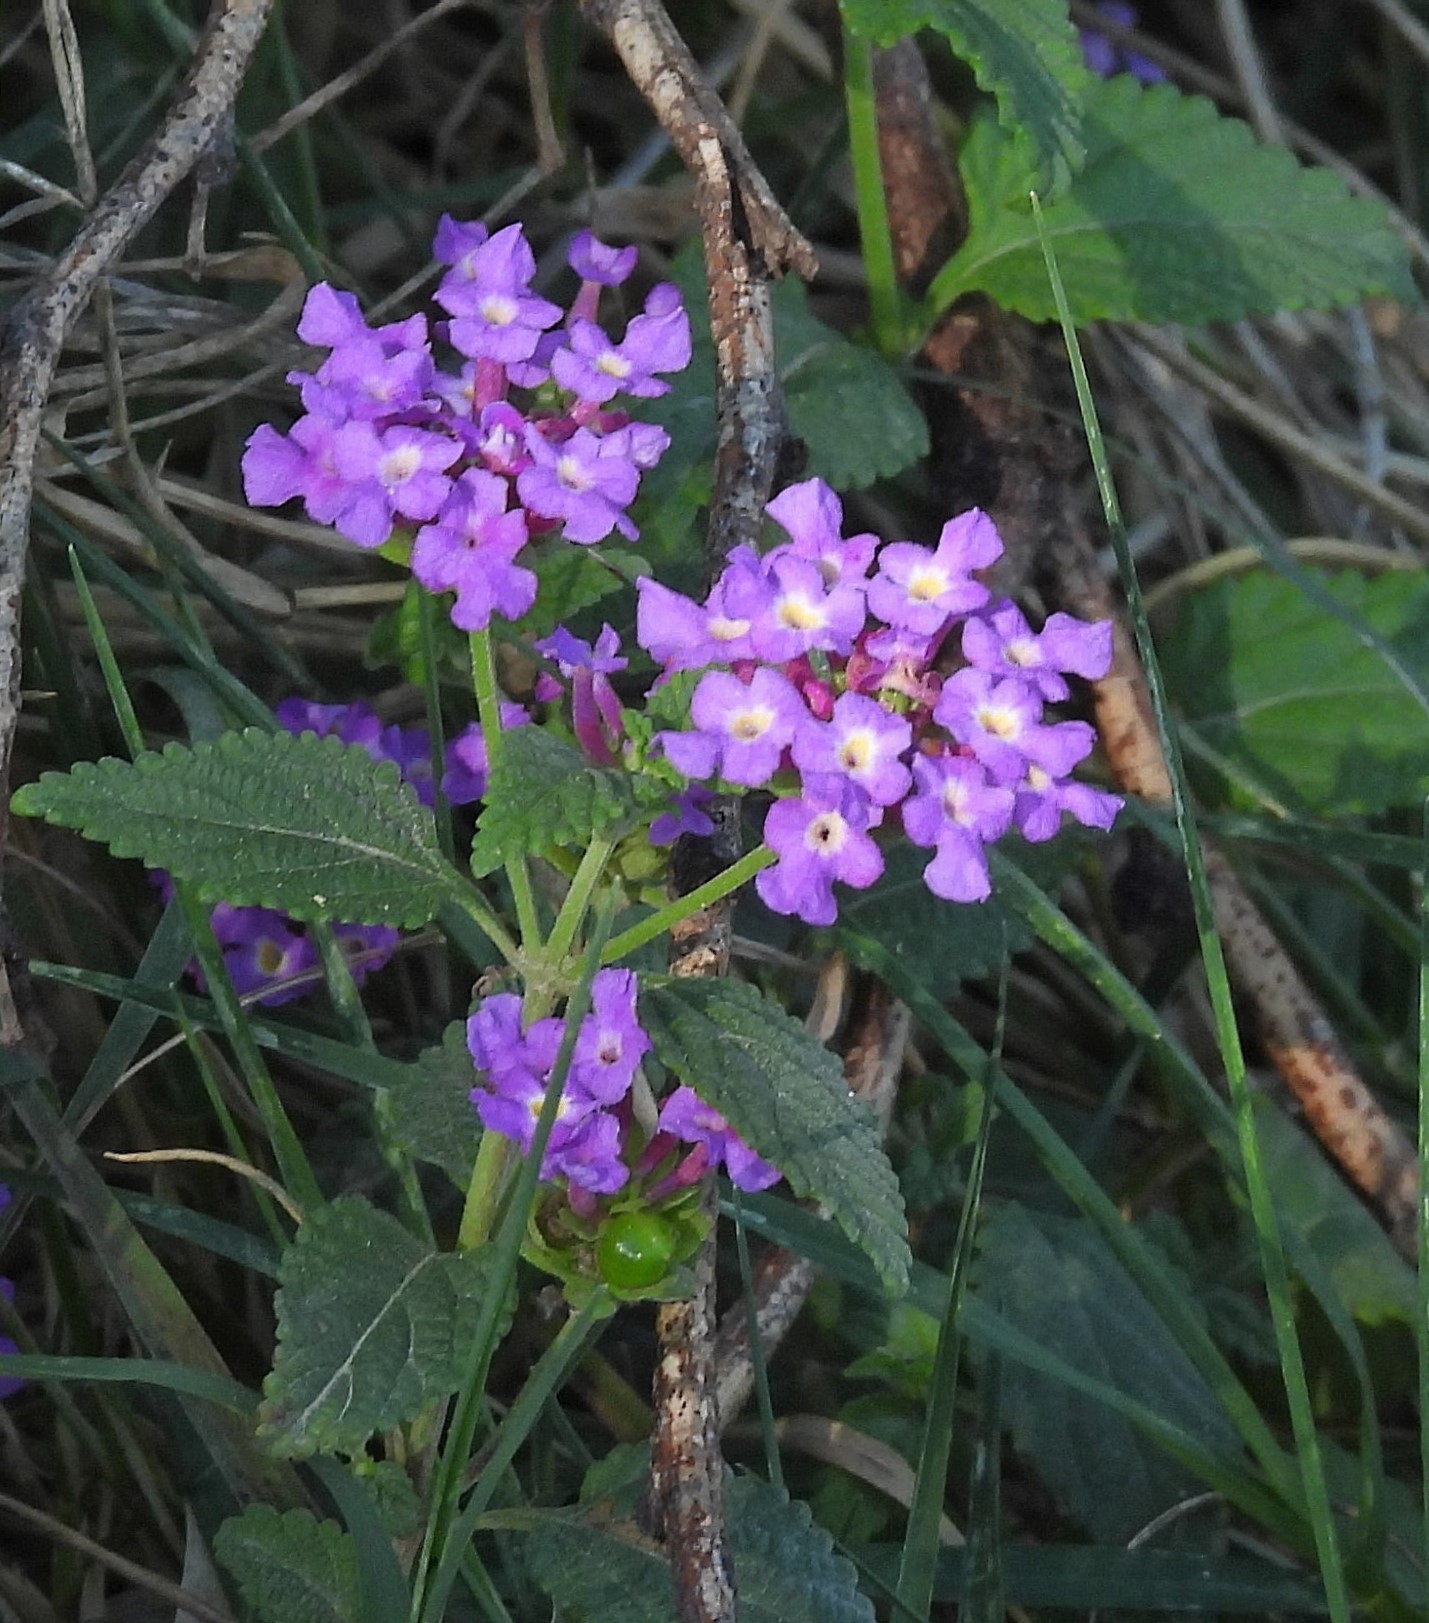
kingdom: Plantae
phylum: Tracheophyta
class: Magnoliopsida
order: Lamiales
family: Verbenaceae
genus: Lantana
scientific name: Lantana montevidensis
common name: Trailing shrubverbena
